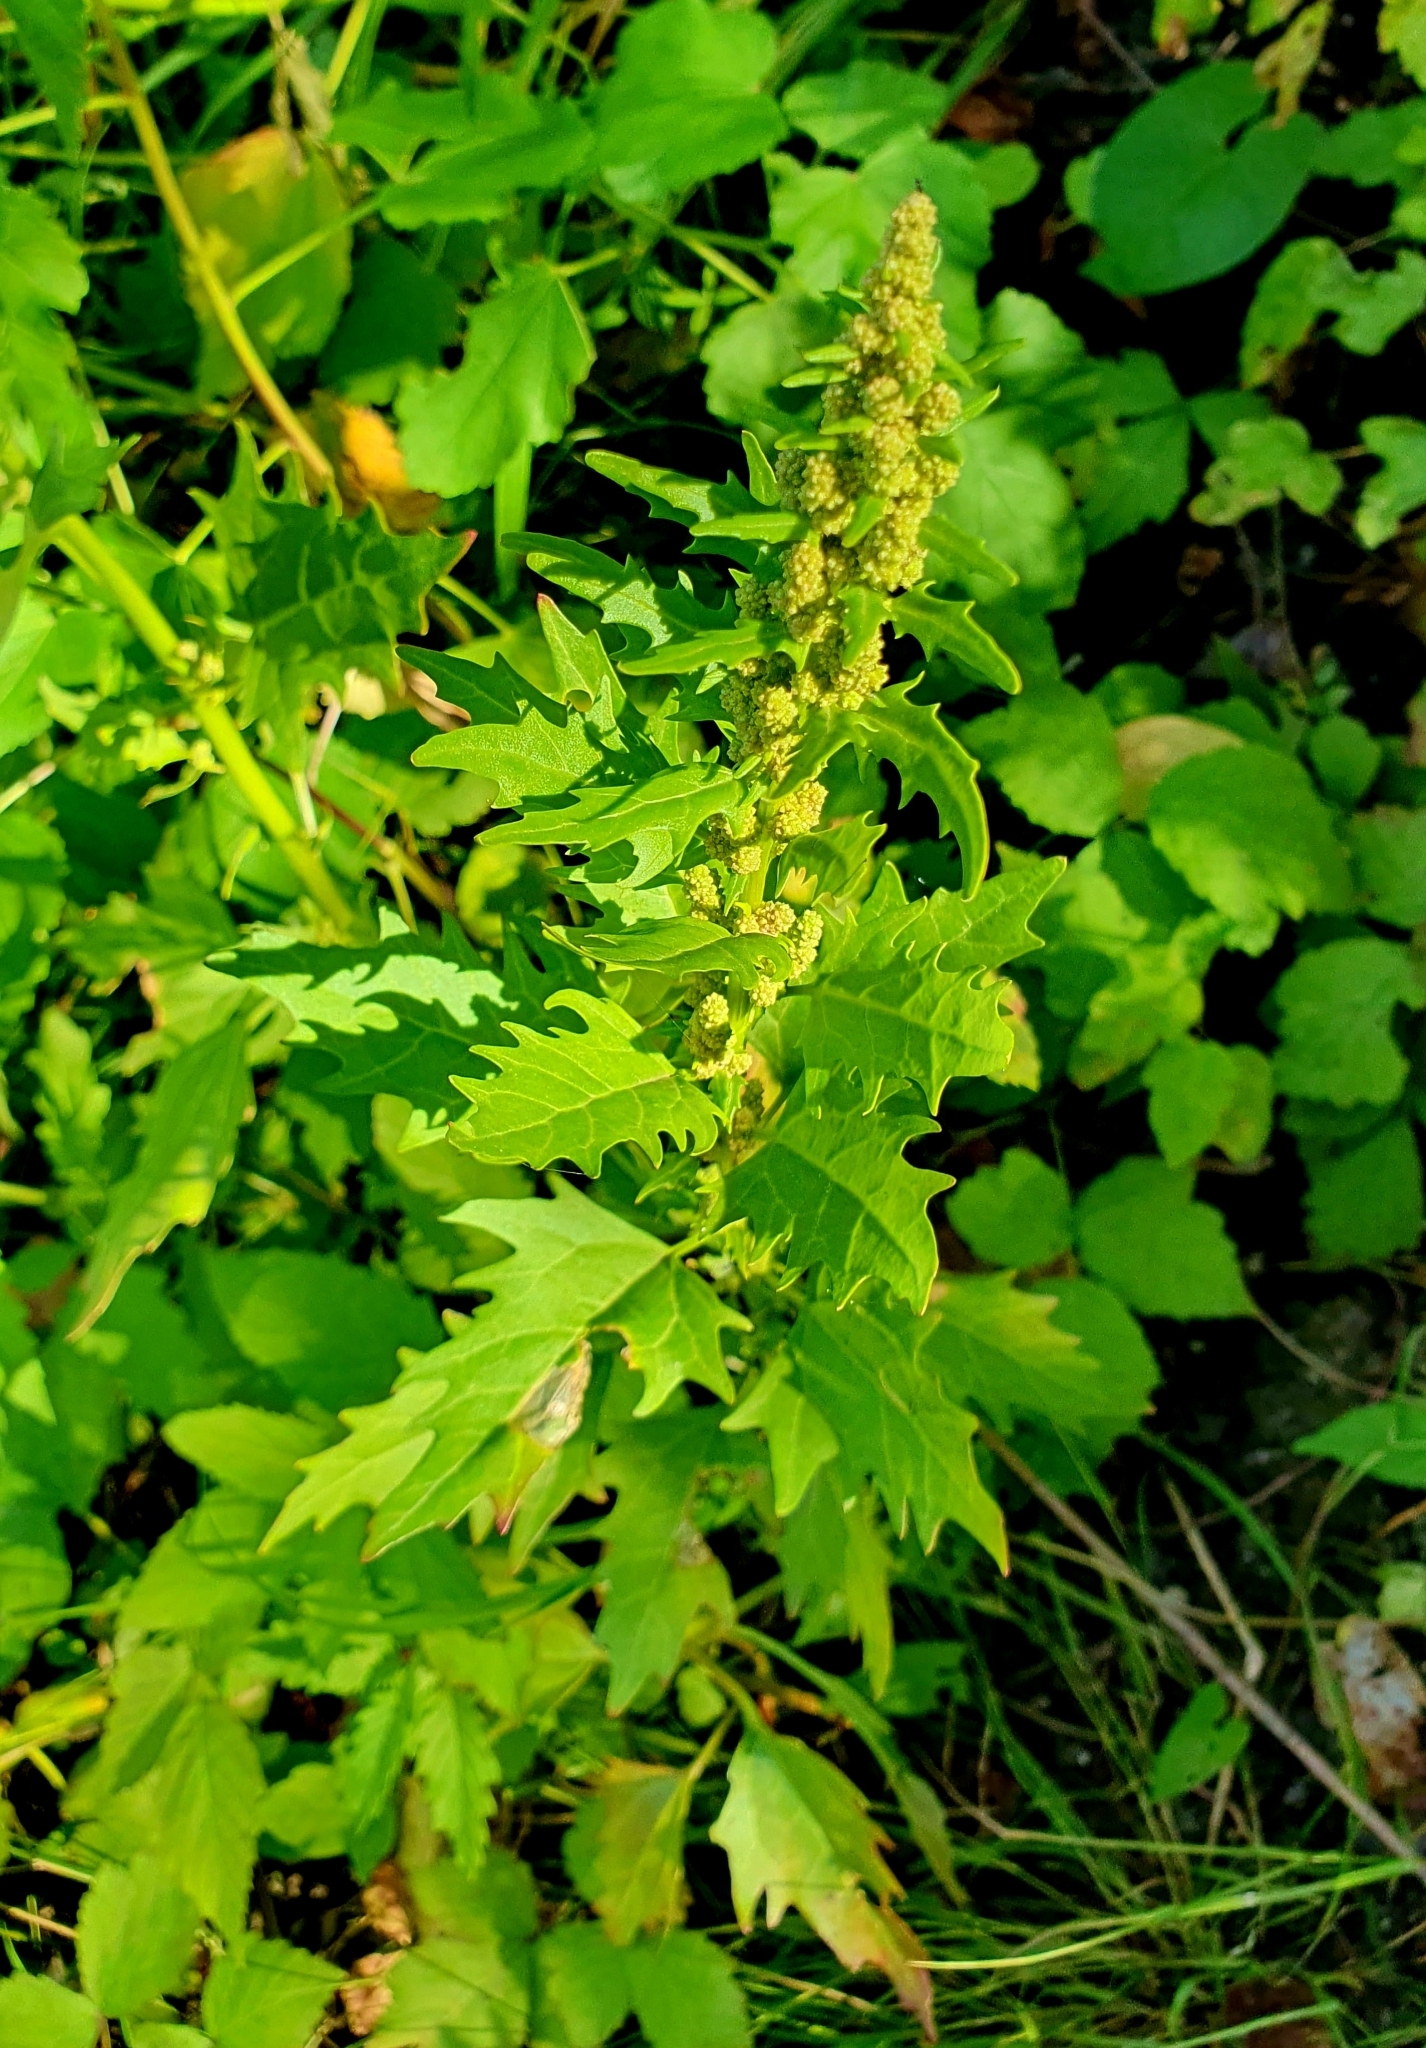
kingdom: Plantae
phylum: Tracheophyta
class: Magnoliopsida
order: Caryophyllales
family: Amaranthaceae
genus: Oxybasis
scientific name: Oxybasis rubra
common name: Red goosefoot
